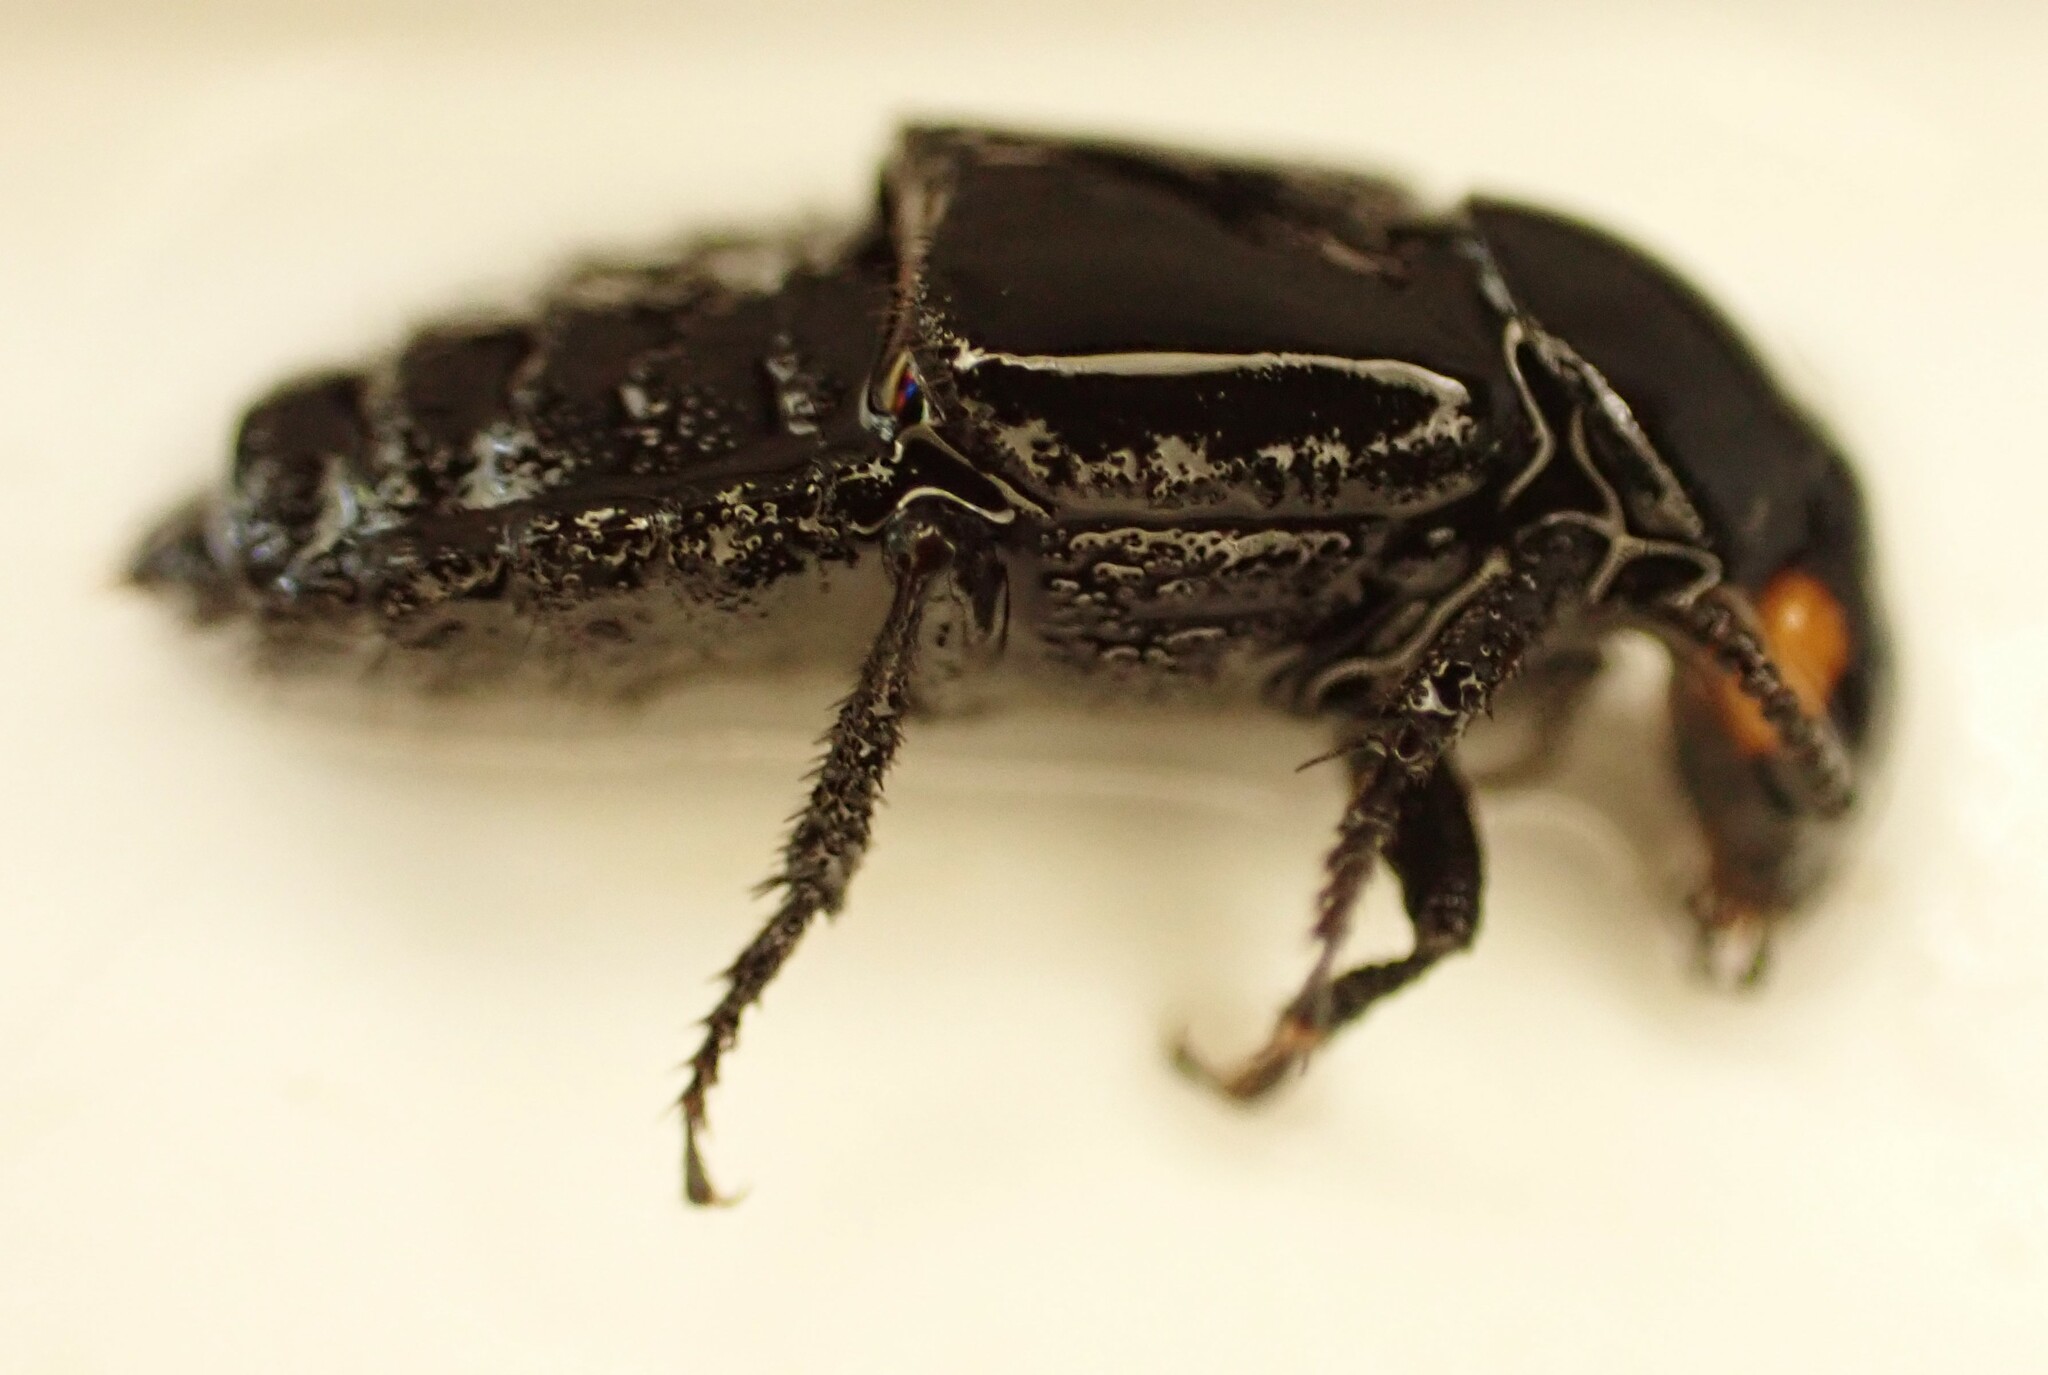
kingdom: Animalia
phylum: Arthropoda
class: Insecta
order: Coleoptera
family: Staphylinidae
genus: Creophilus
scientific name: Creophilus oculatus
